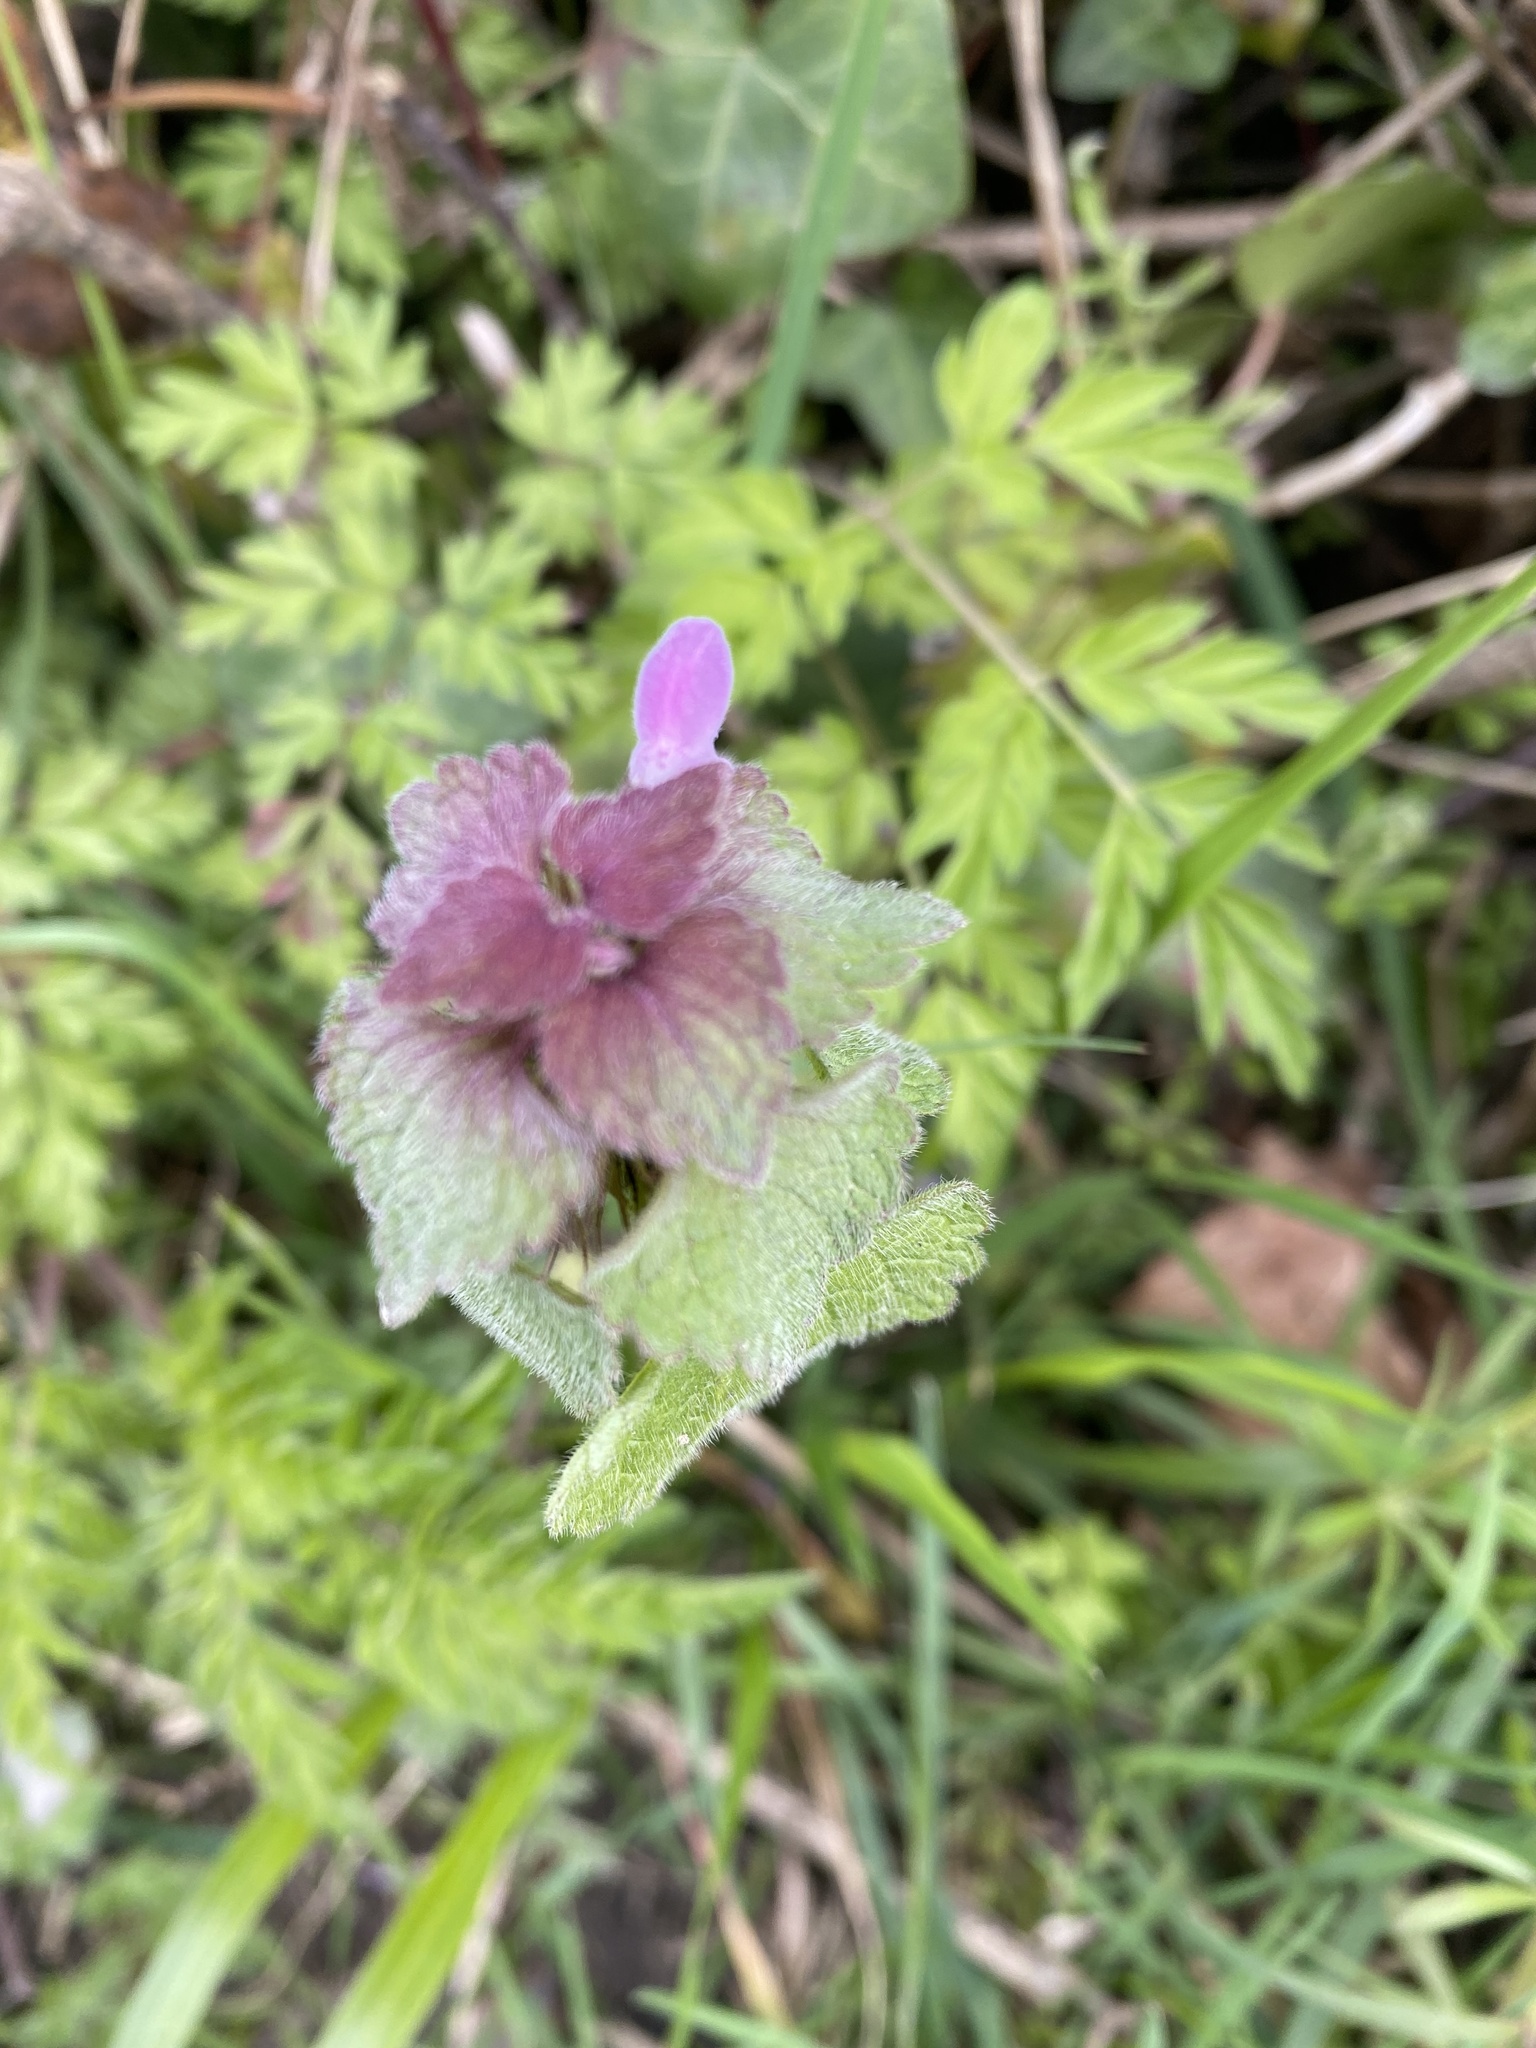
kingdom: Plantae
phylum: Tracheophyta
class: Magnoliopsida
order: Lamiales
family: Lamiaceae
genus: Lamium
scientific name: Lamium purpureum
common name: Red dead-nettle
